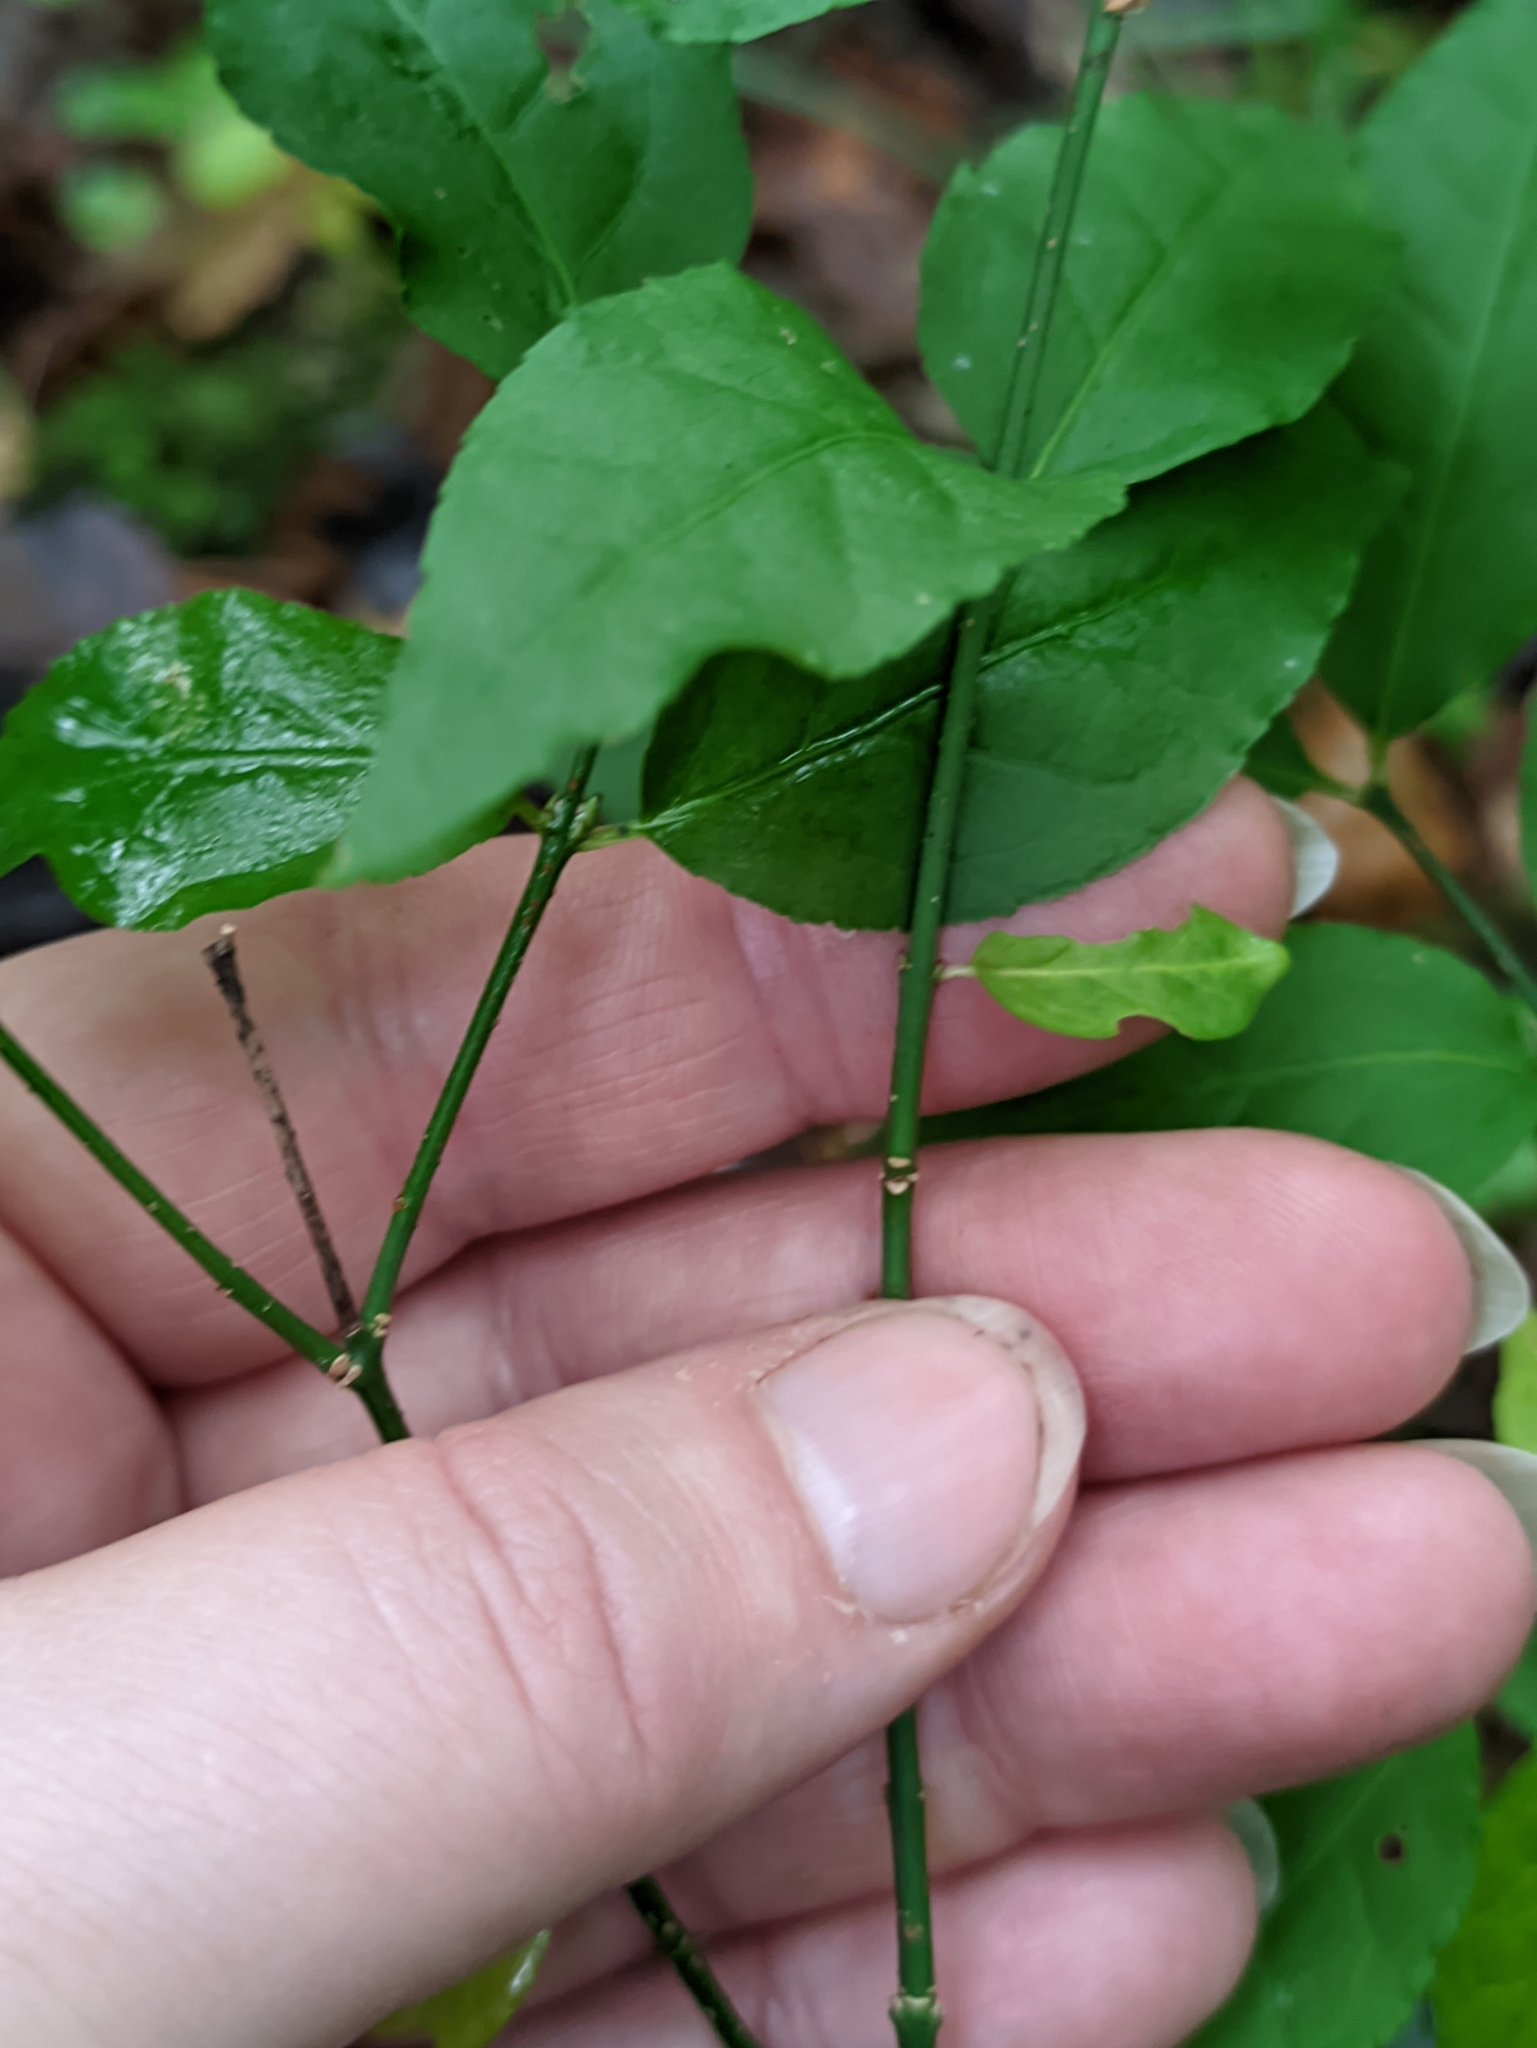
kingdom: Plantae
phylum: Tracheophyta
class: Magnoliopsida
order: Celastrales
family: Celastraceae
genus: Euonymus
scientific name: Euonymus verrucosus
